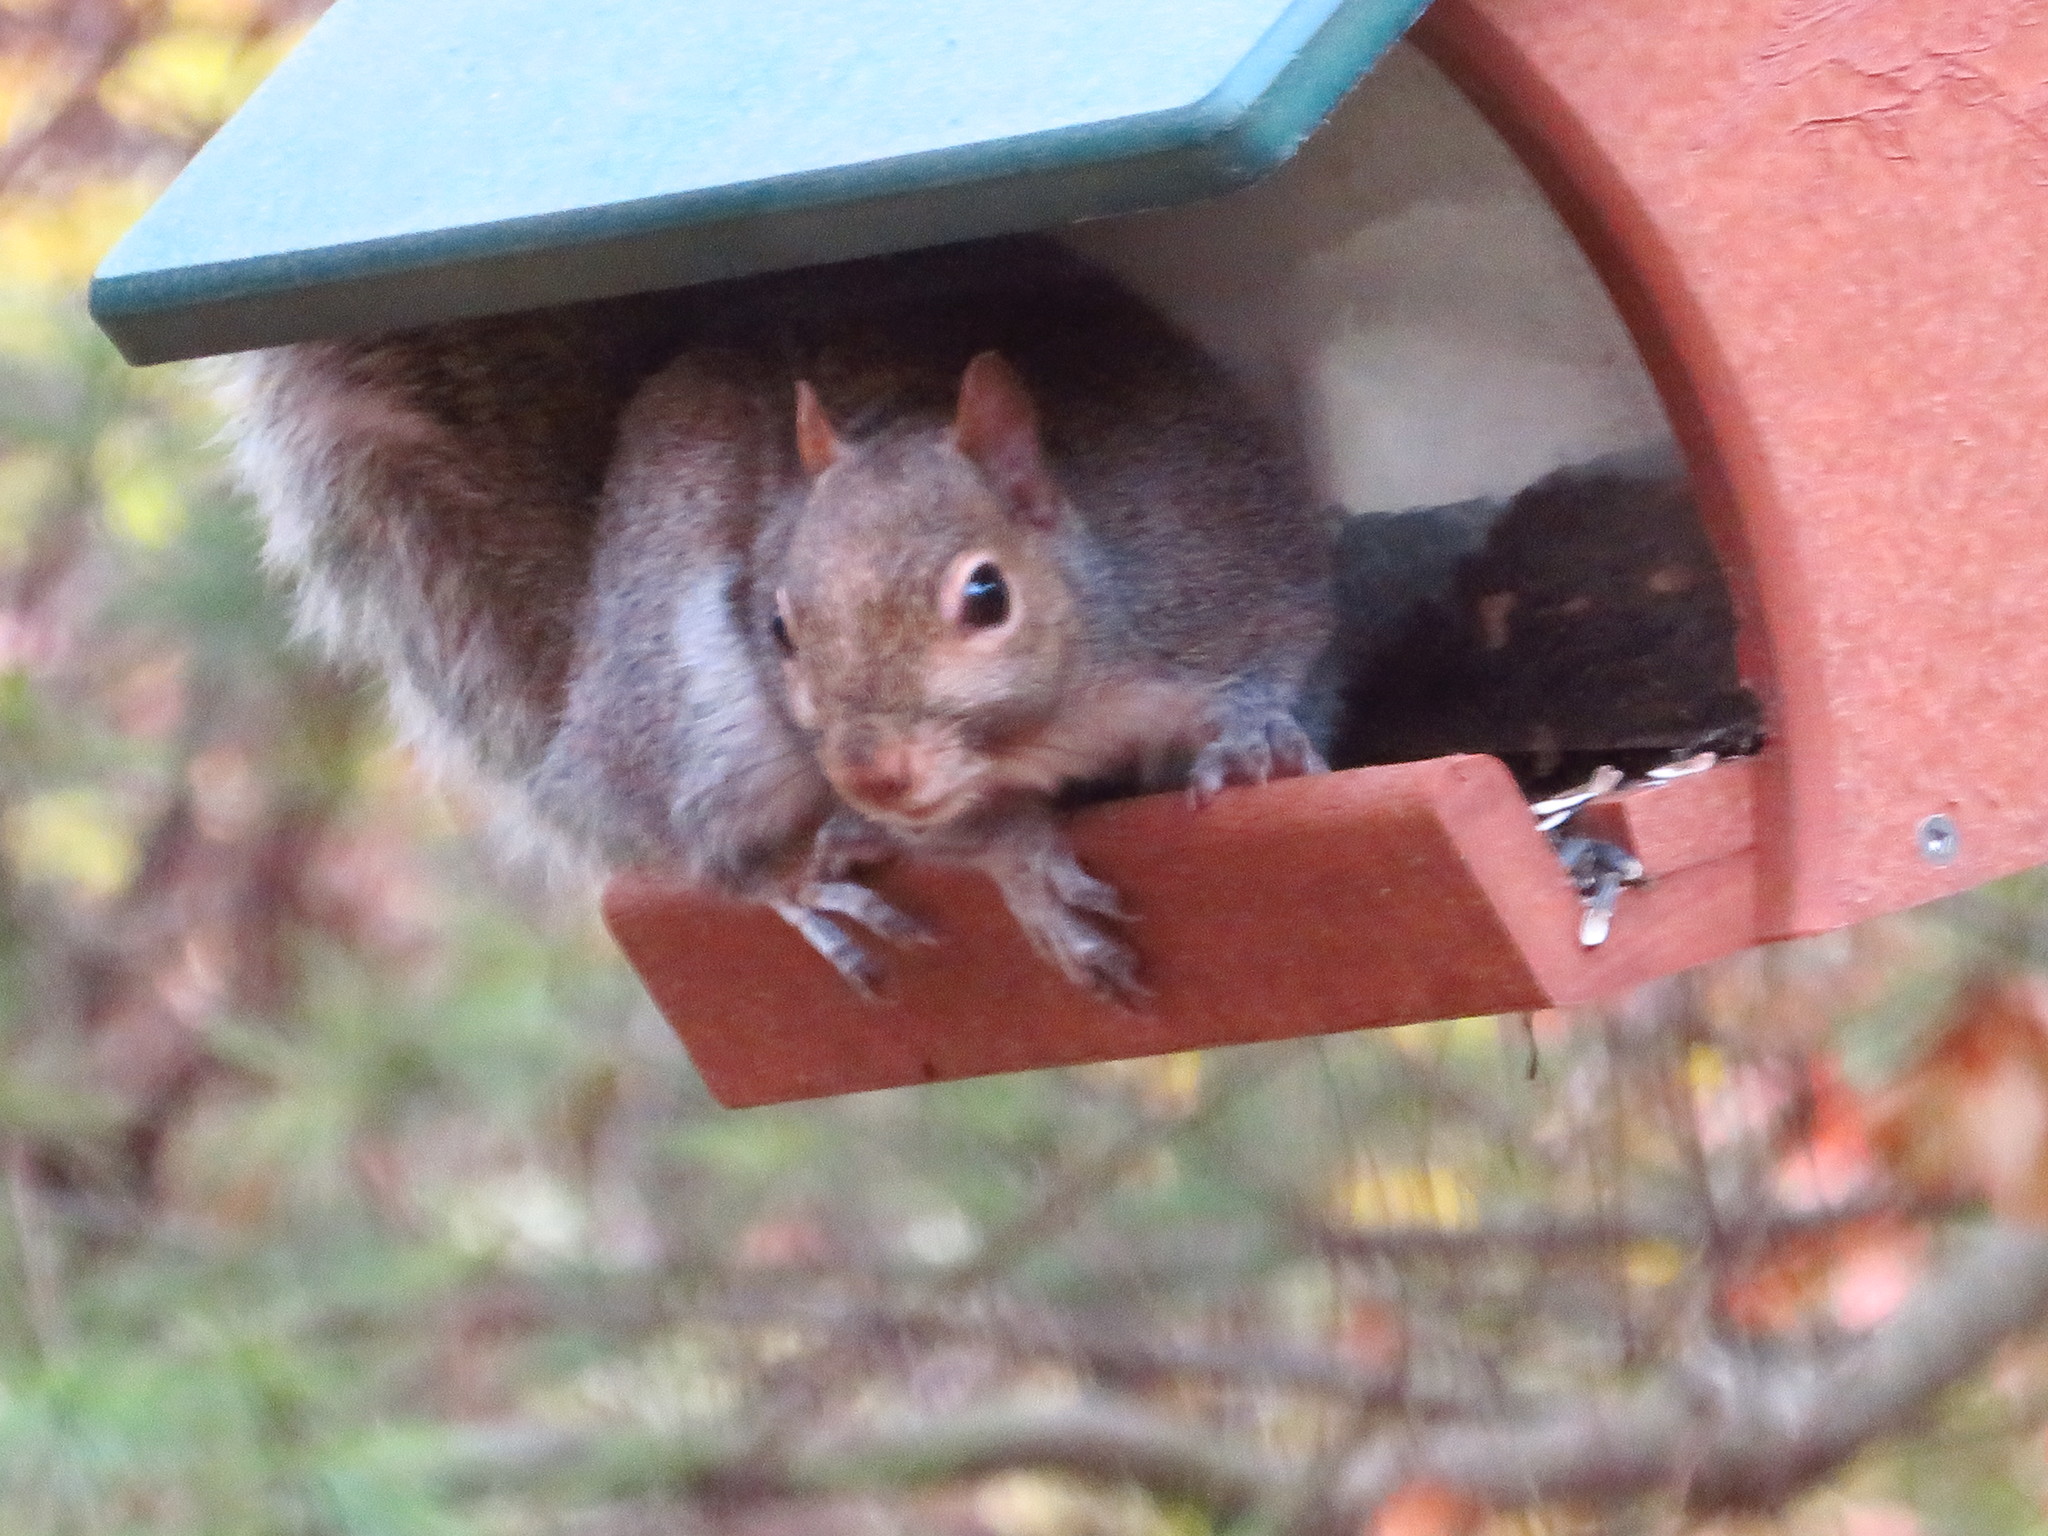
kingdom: Animalia
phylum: Chordata
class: Mammalia
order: Rodentia
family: Sciuridae
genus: Sciurus
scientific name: Sciurus carolinensis
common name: Eastern gray squirrel
